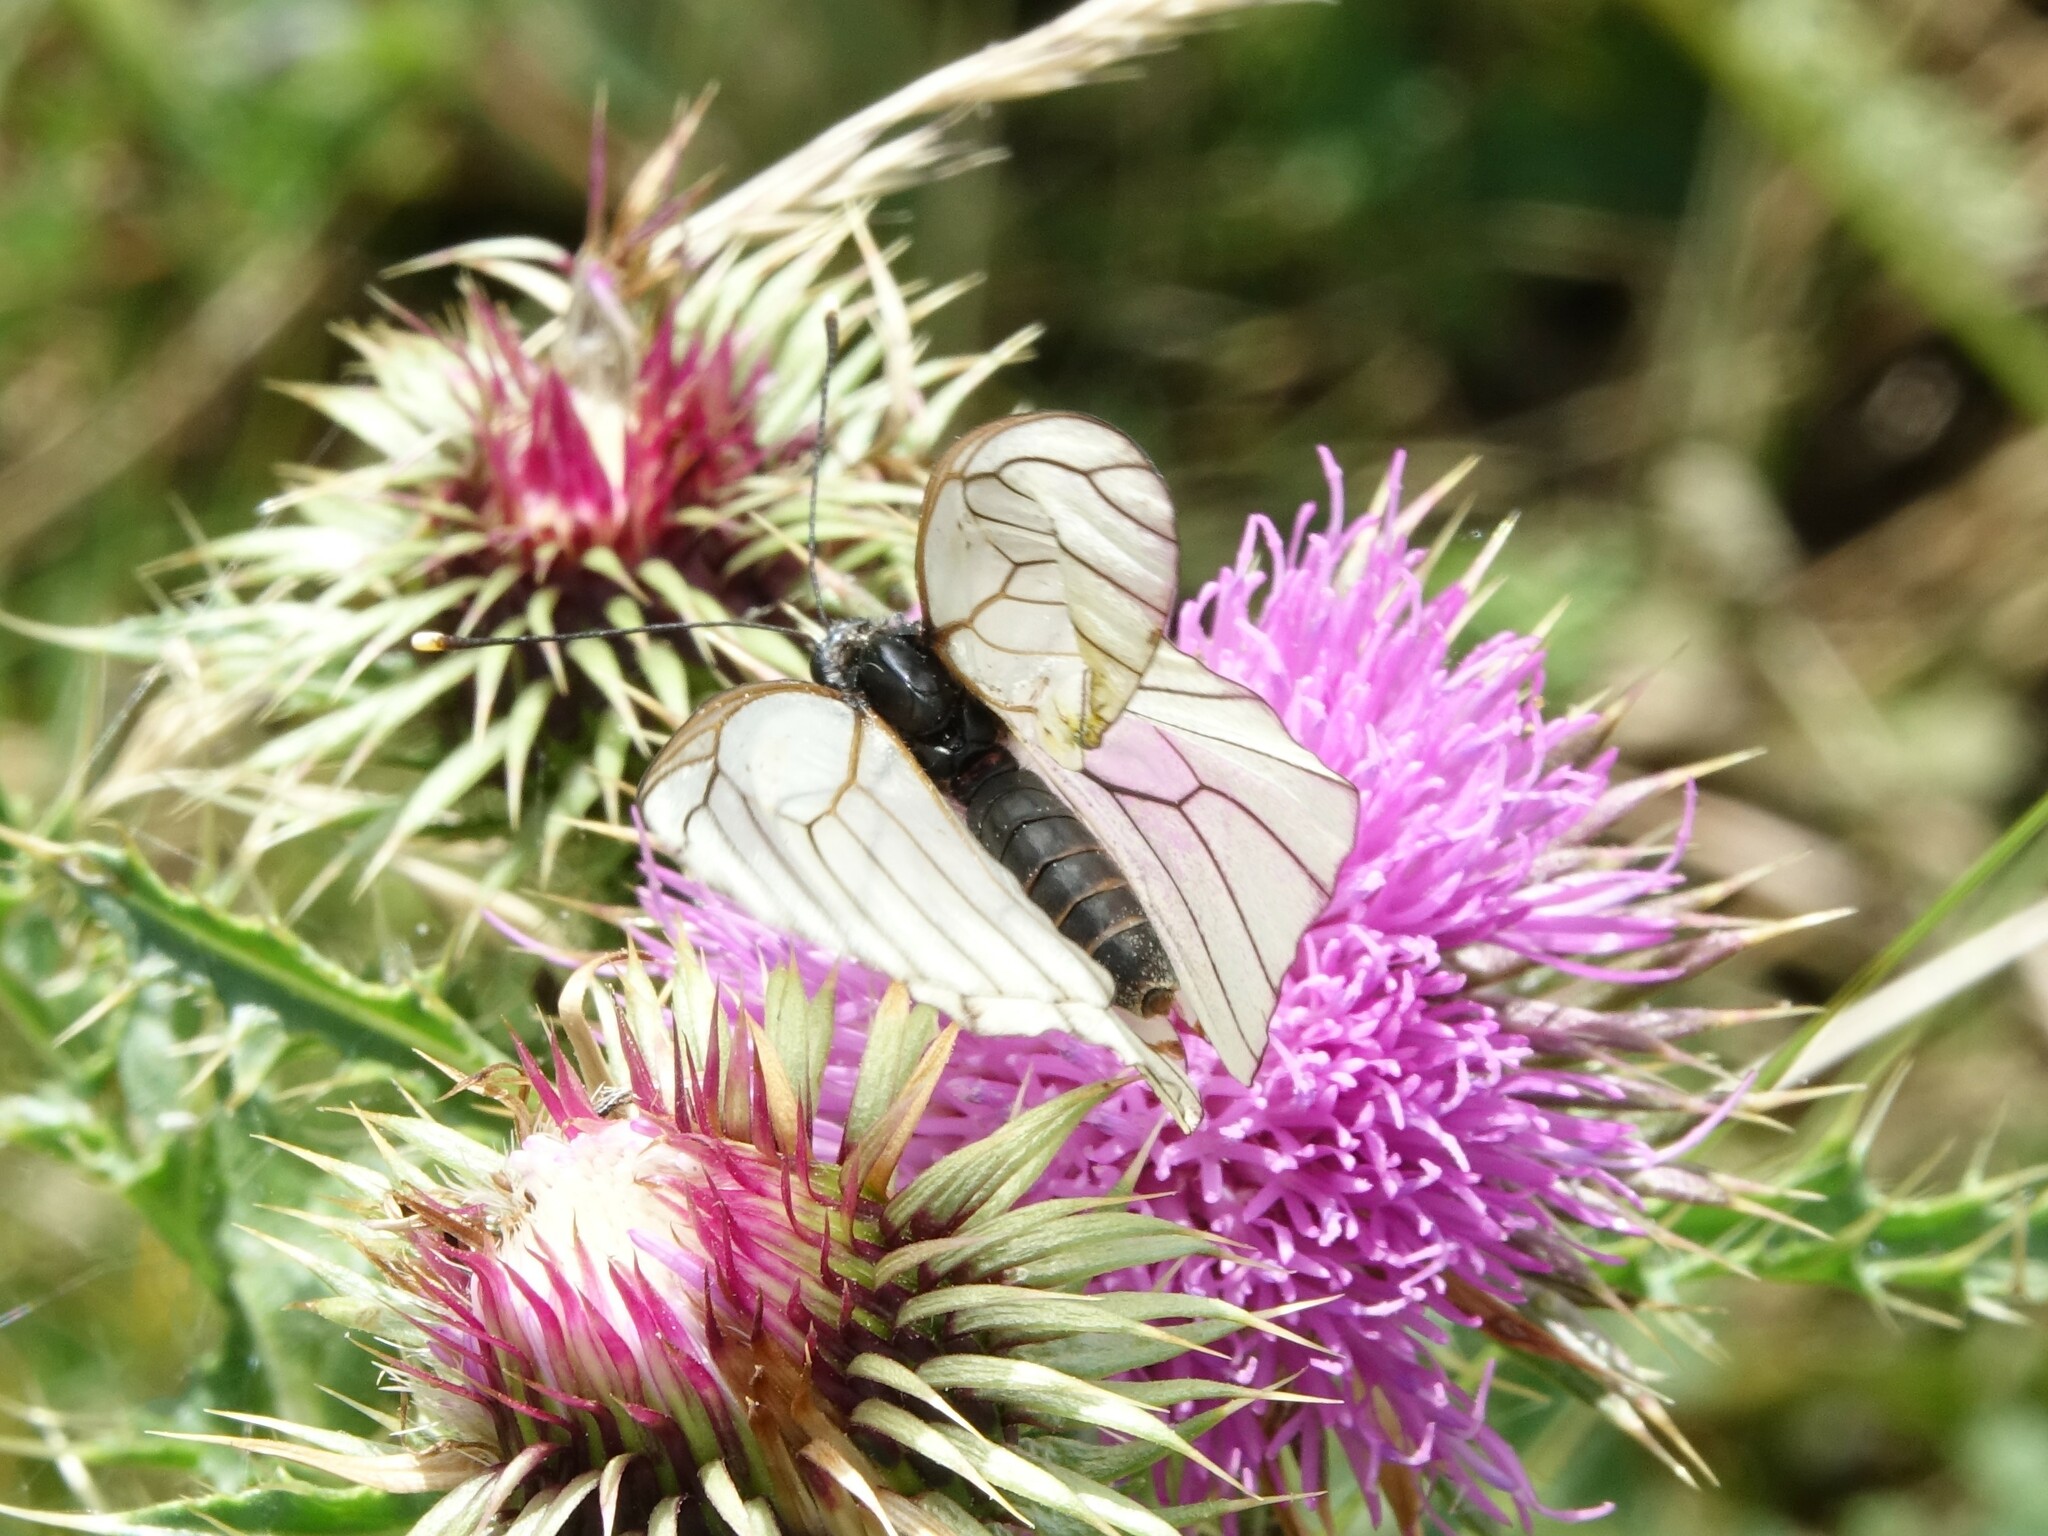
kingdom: Animalia
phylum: Arthropoda
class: Insecta
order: Lepidoptera
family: Pieridae
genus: Aporia
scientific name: Aporia crataegi
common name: Black-veined white
